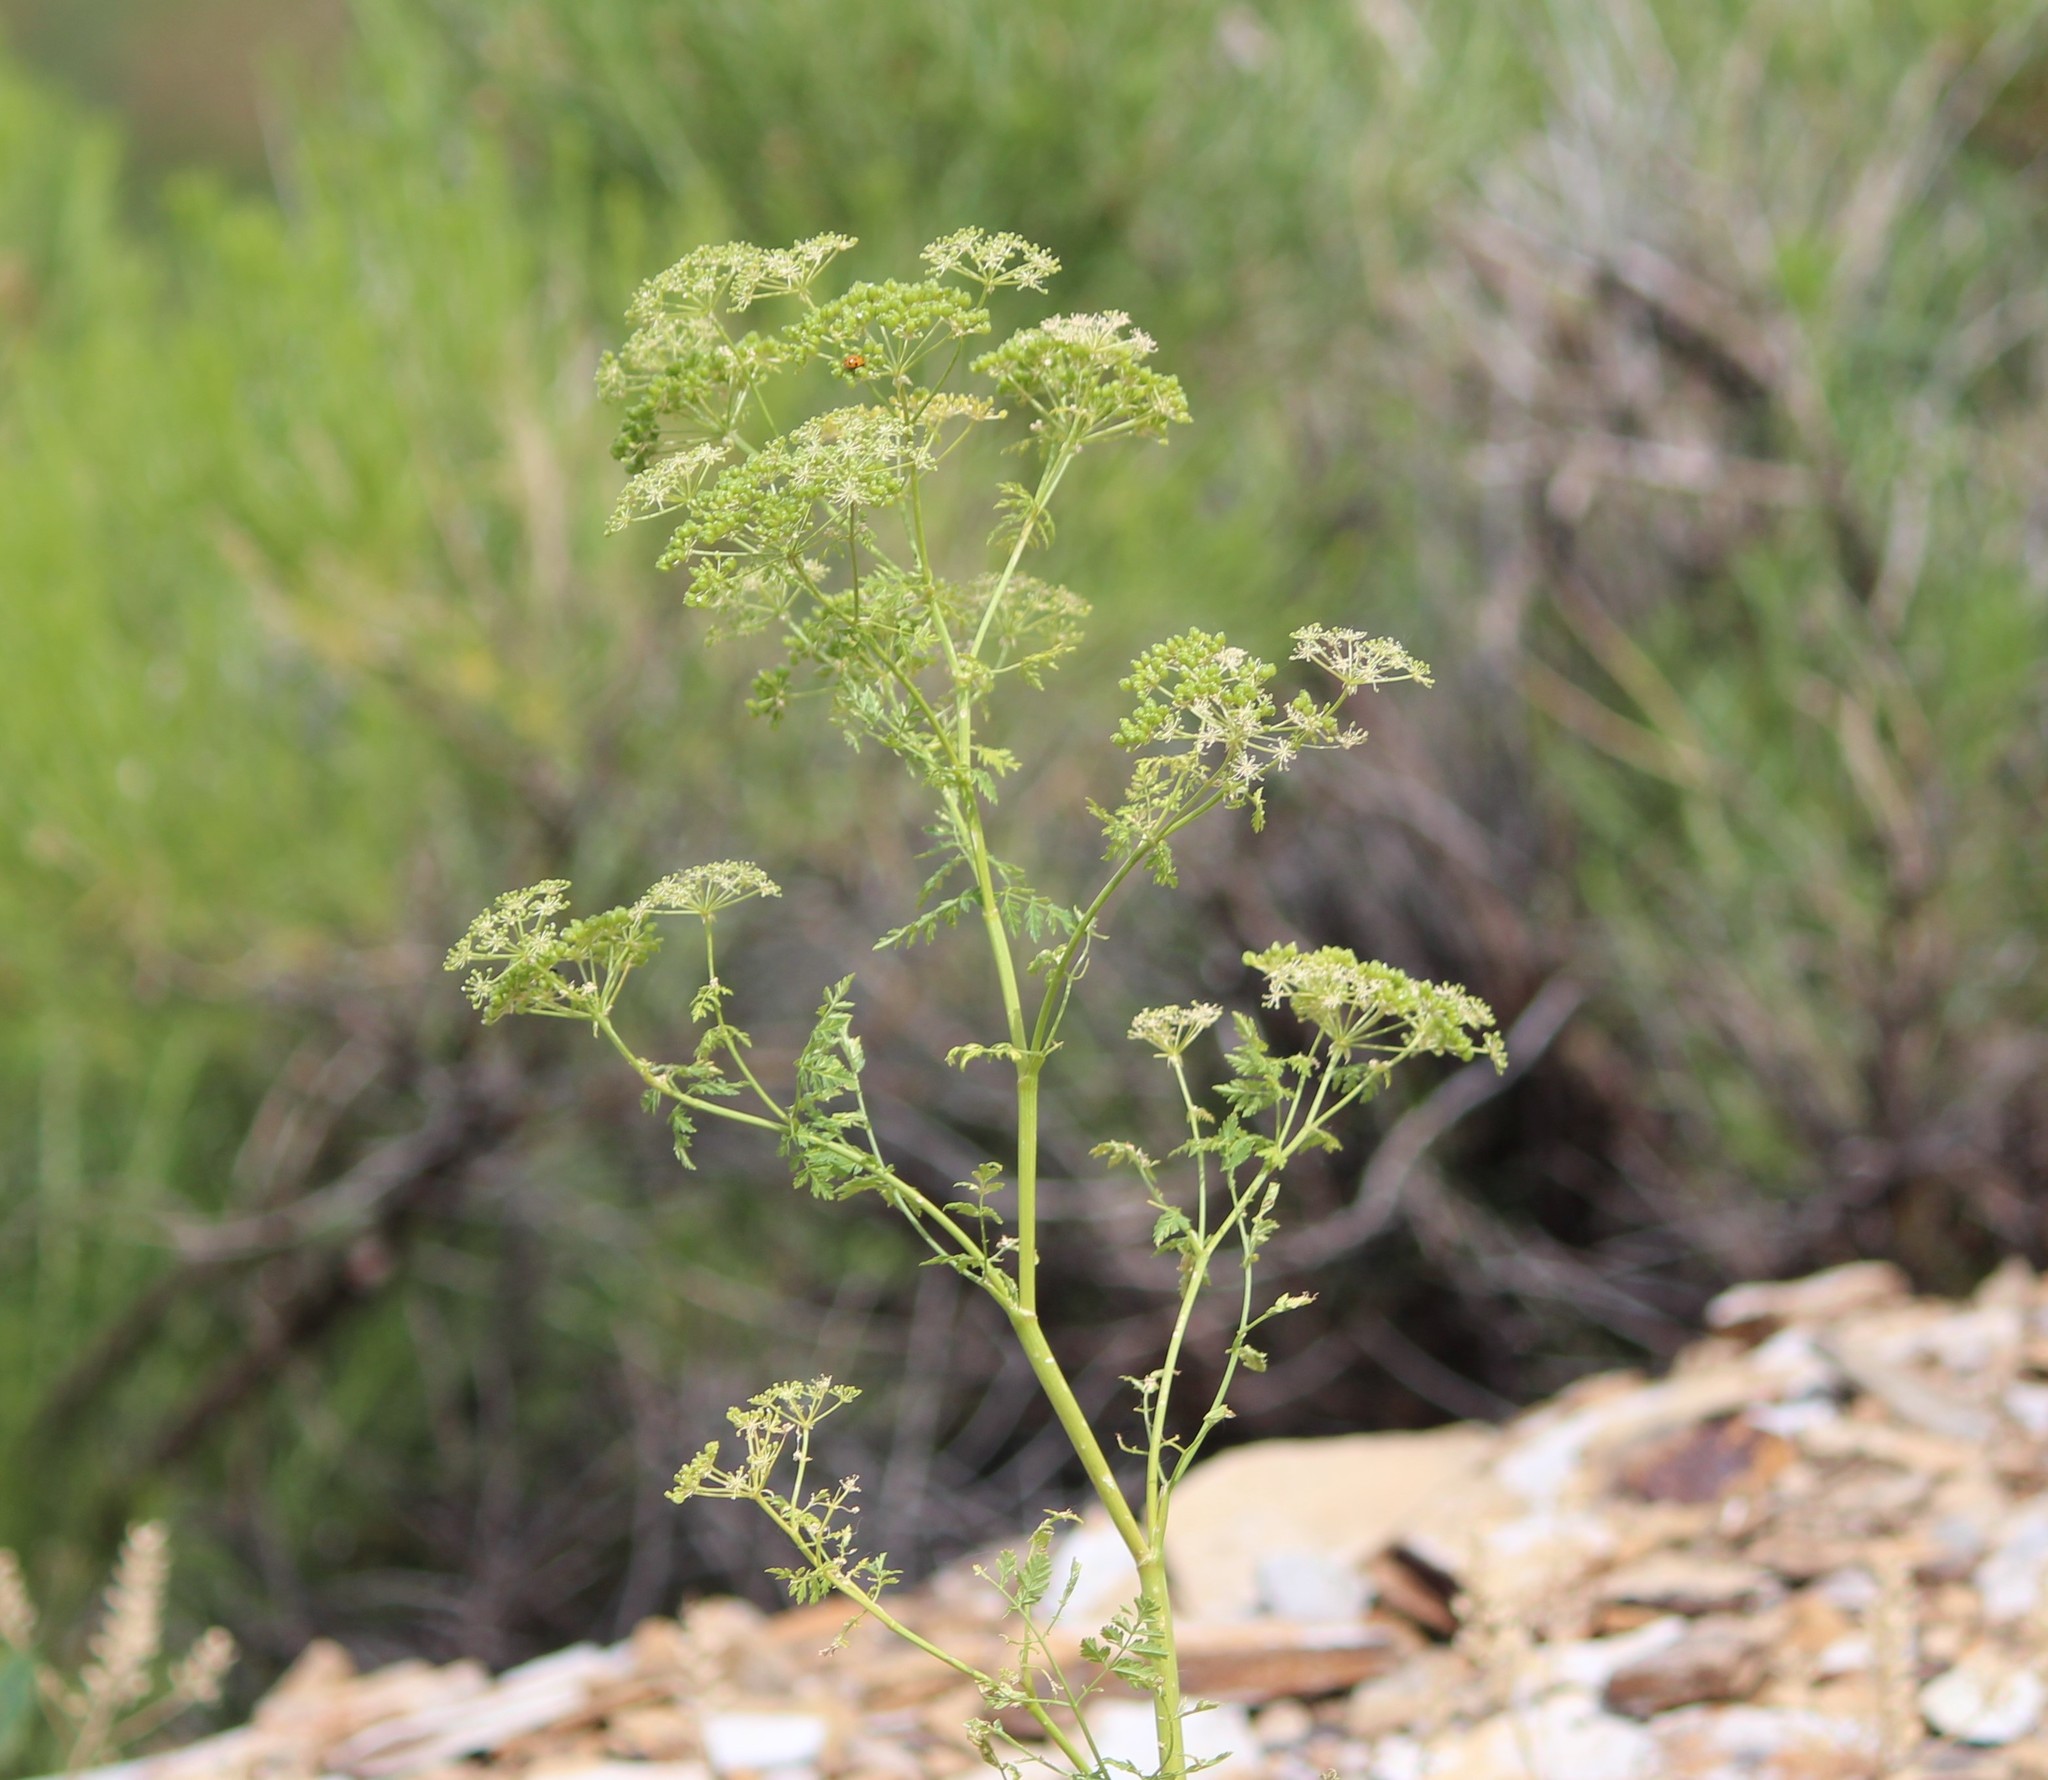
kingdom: Plantae
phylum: Tracheophyta
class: Magnoliopsida
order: Apiales
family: Apiaceae
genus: Conium
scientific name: Conium maculatum
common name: Hemlock
